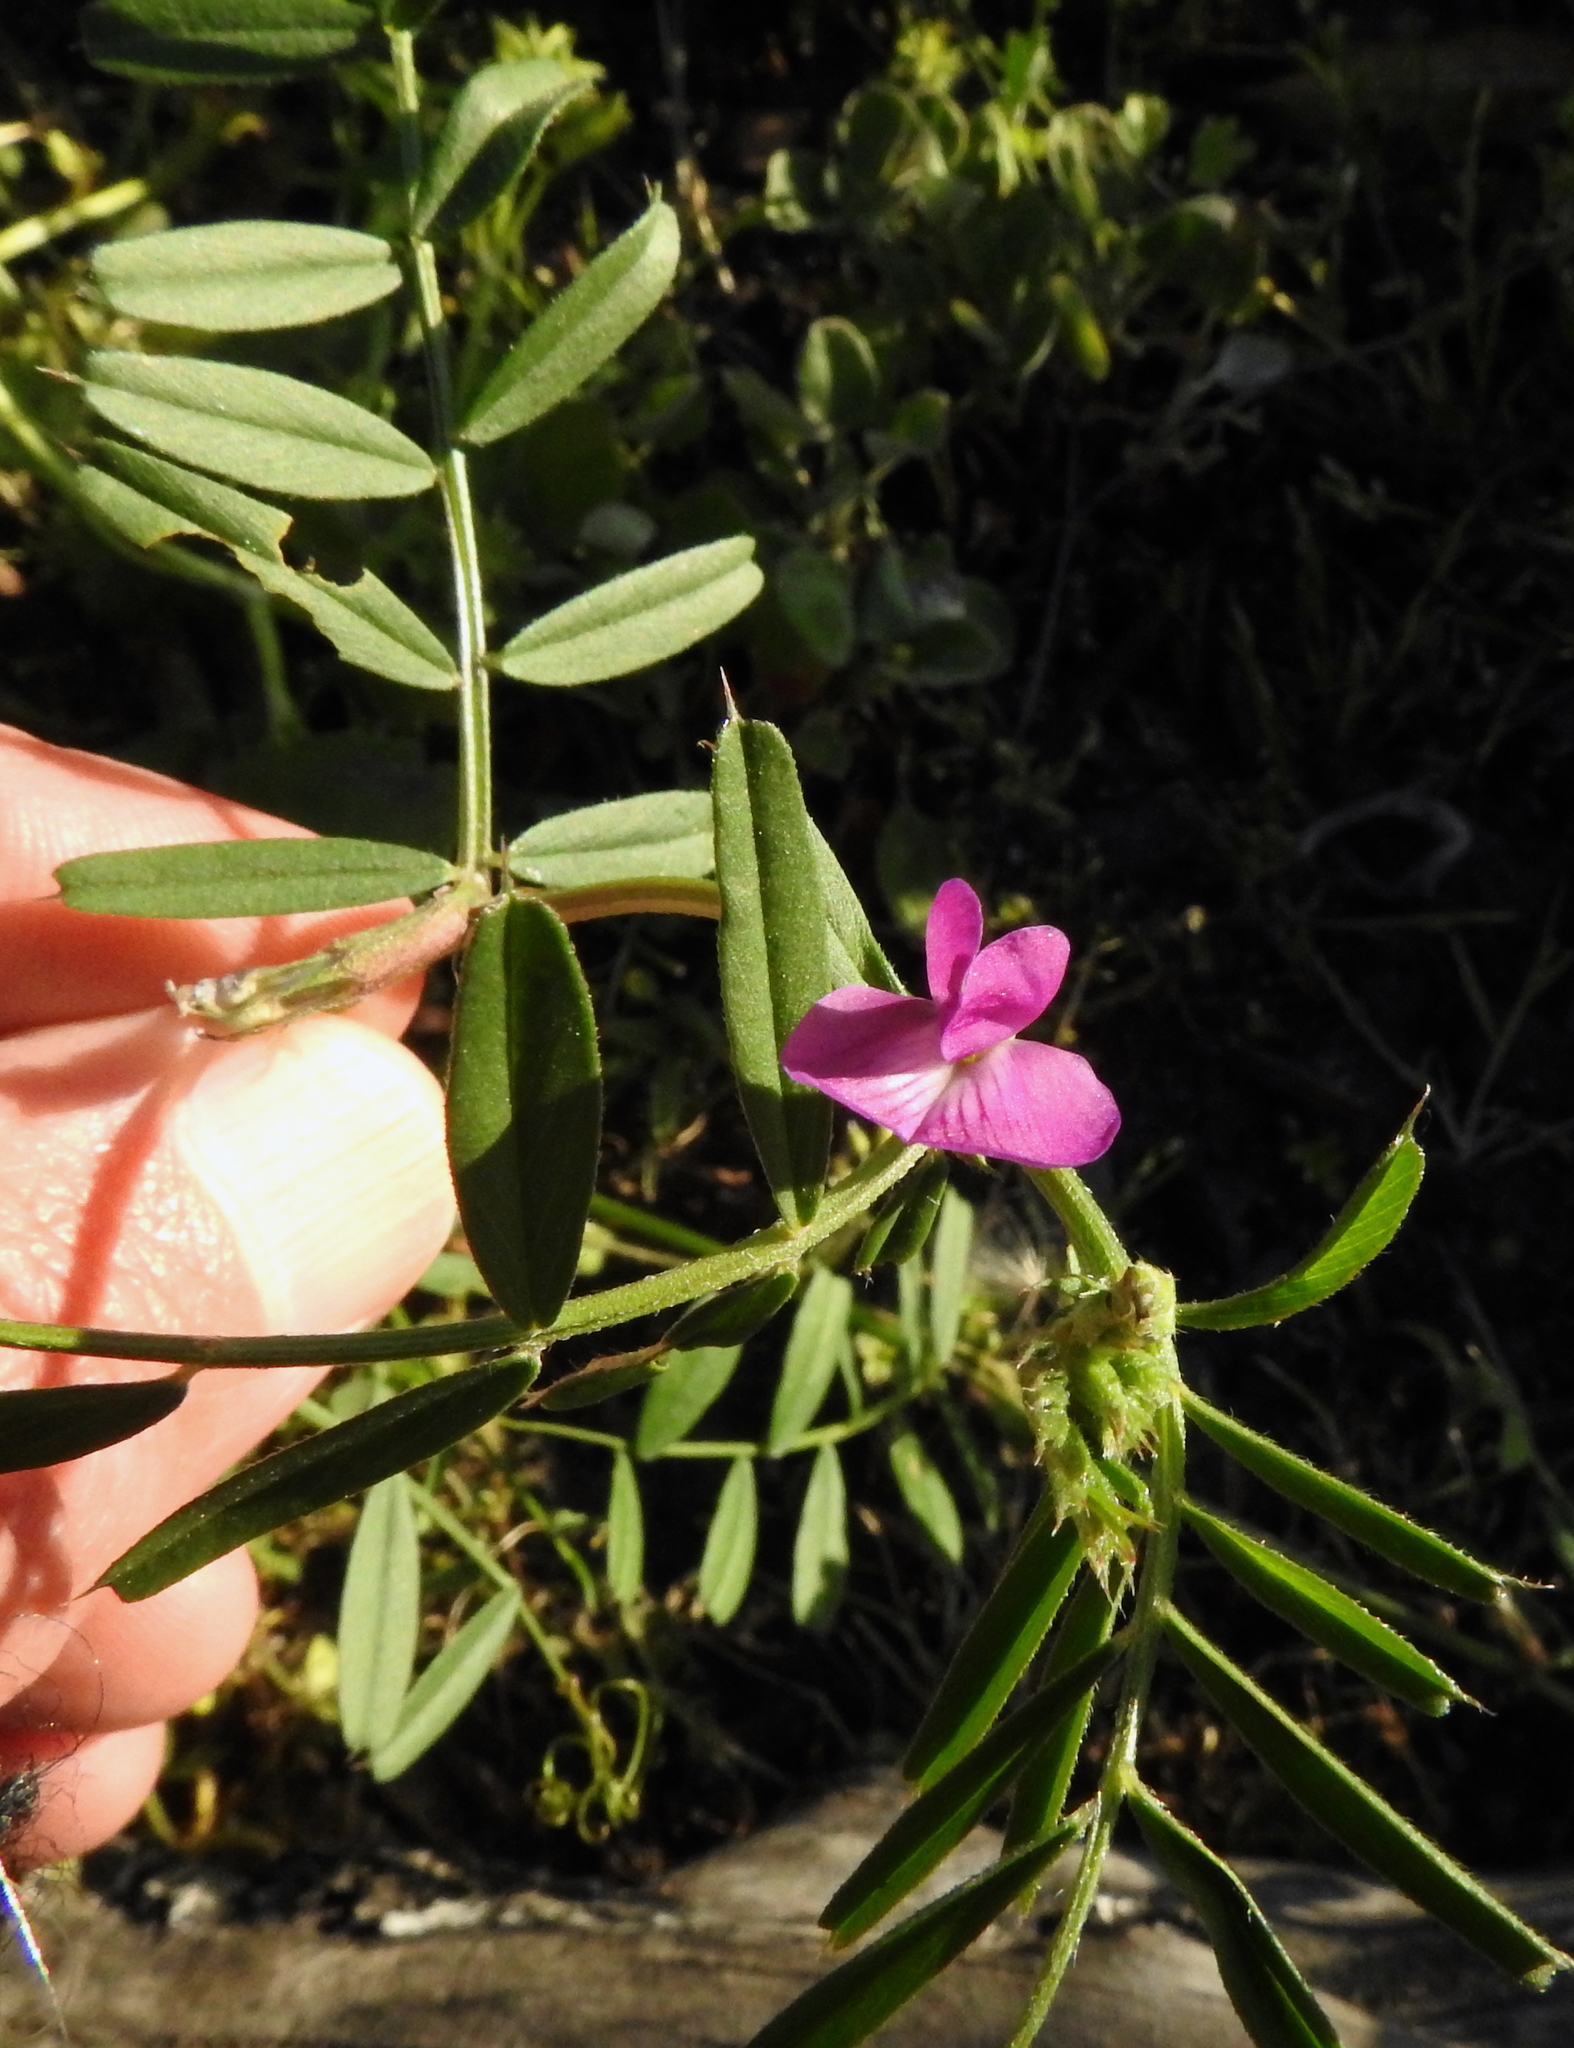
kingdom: Plantae
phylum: Tracheophyta
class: Magnoliopsida
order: Fabales
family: Fabaceae
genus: Vicia
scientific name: Vicia sativa
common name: Garden vetch
